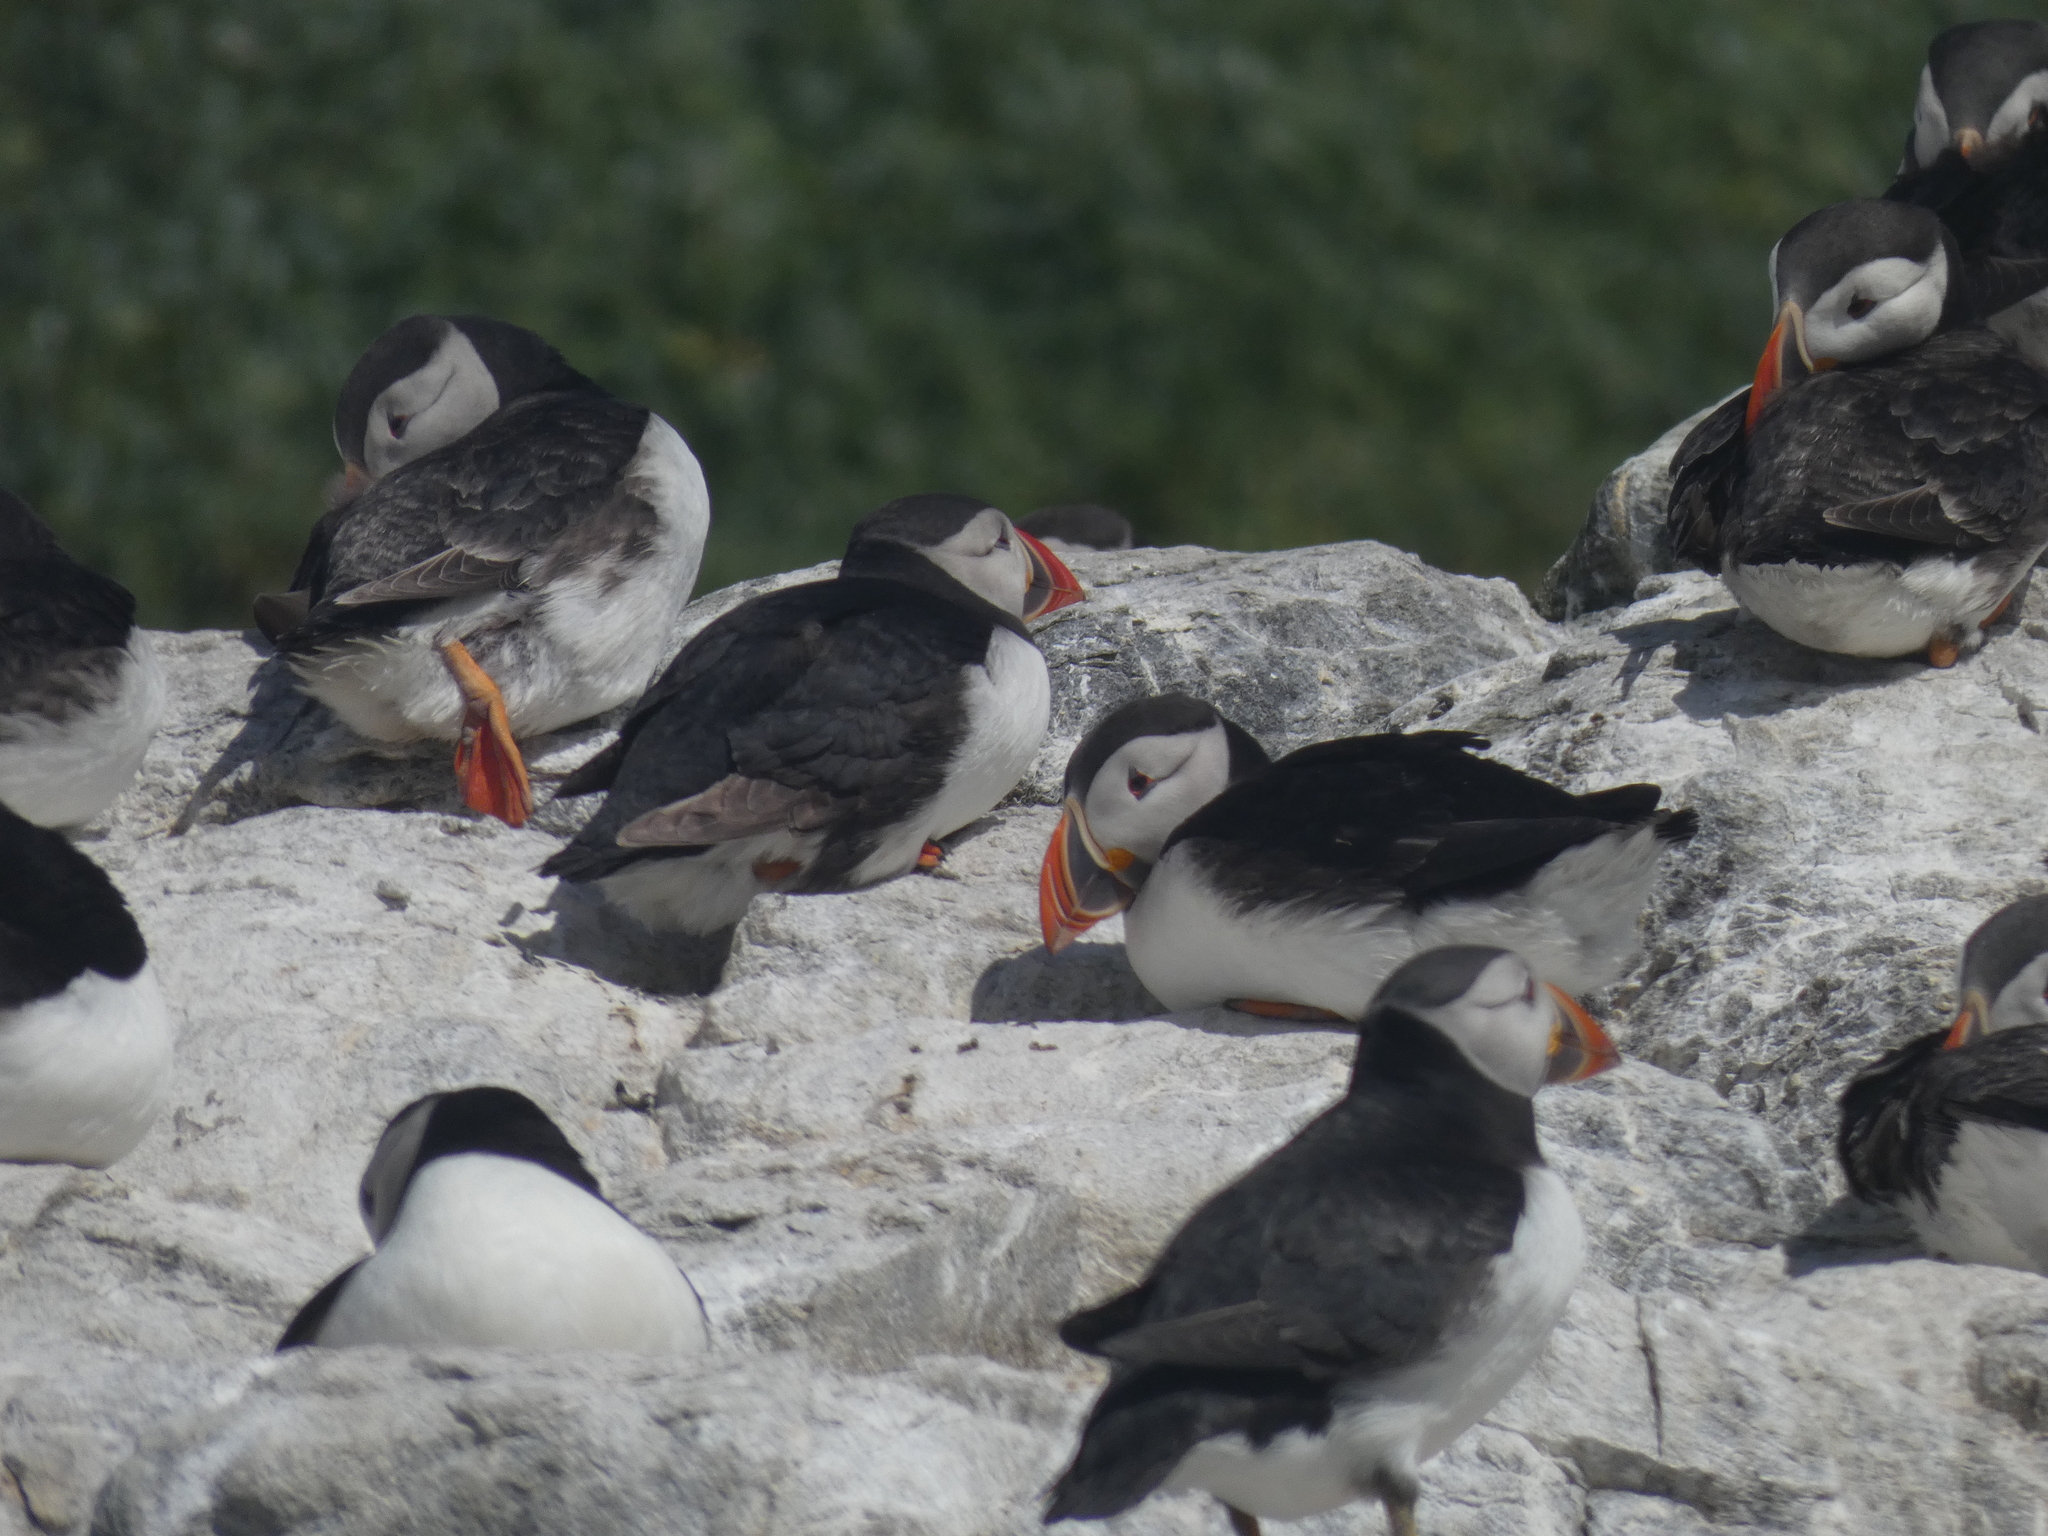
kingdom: Animalia
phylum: Chordata
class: Aves
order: Charadriiformes
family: Alcidae
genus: Fratercula
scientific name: Fratercula arctica
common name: Atlantic puffin
